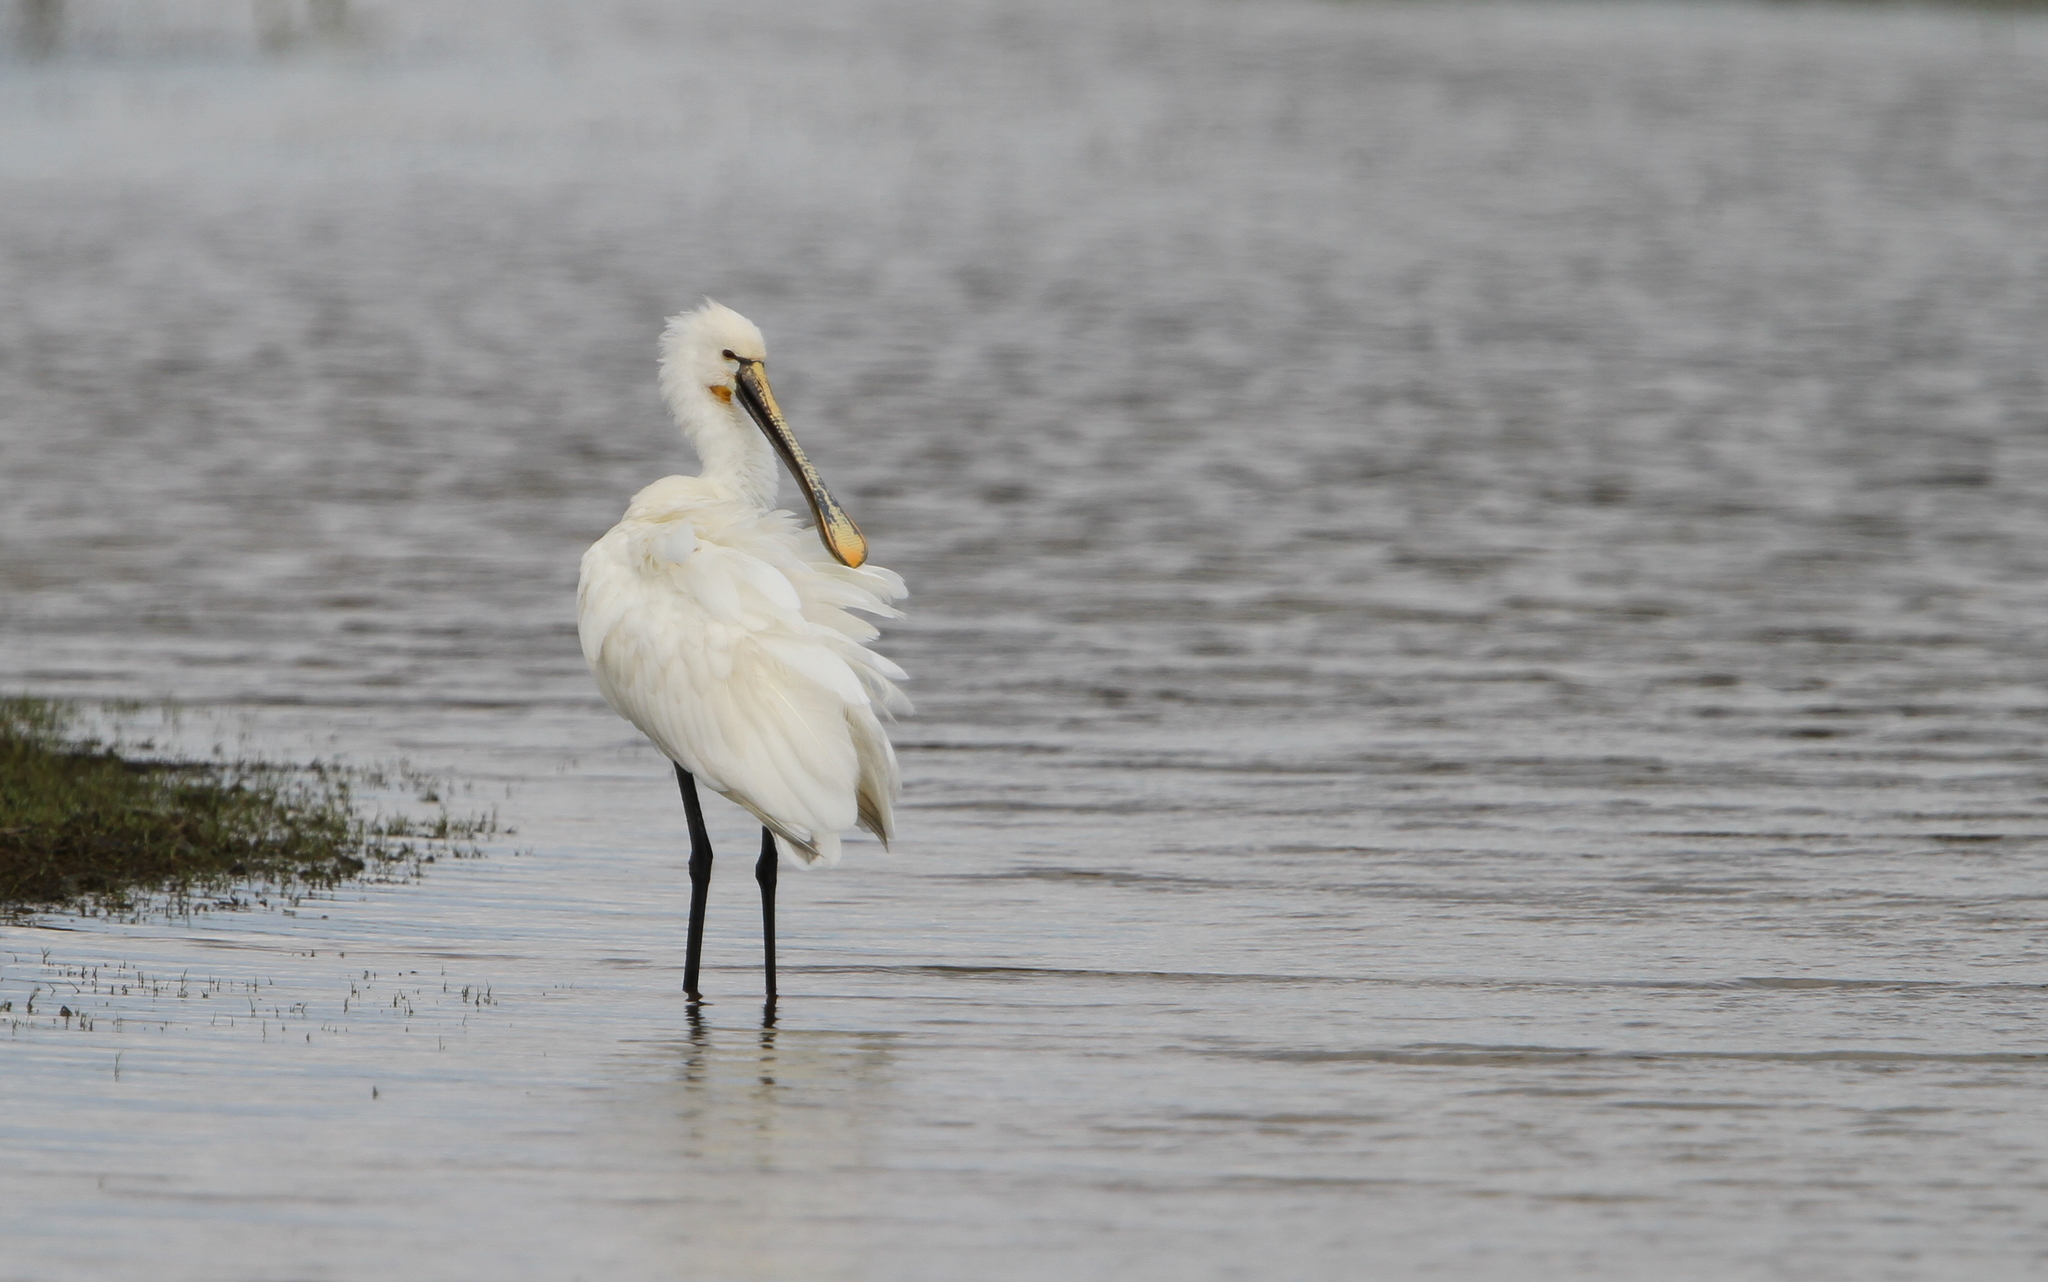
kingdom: Animalia
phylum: Chordata
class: Aves
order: Pelecaniformes
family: Threskiornithidae
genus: Platalea
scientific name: Platalea leucorodia
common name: Eurasian spoonbill
